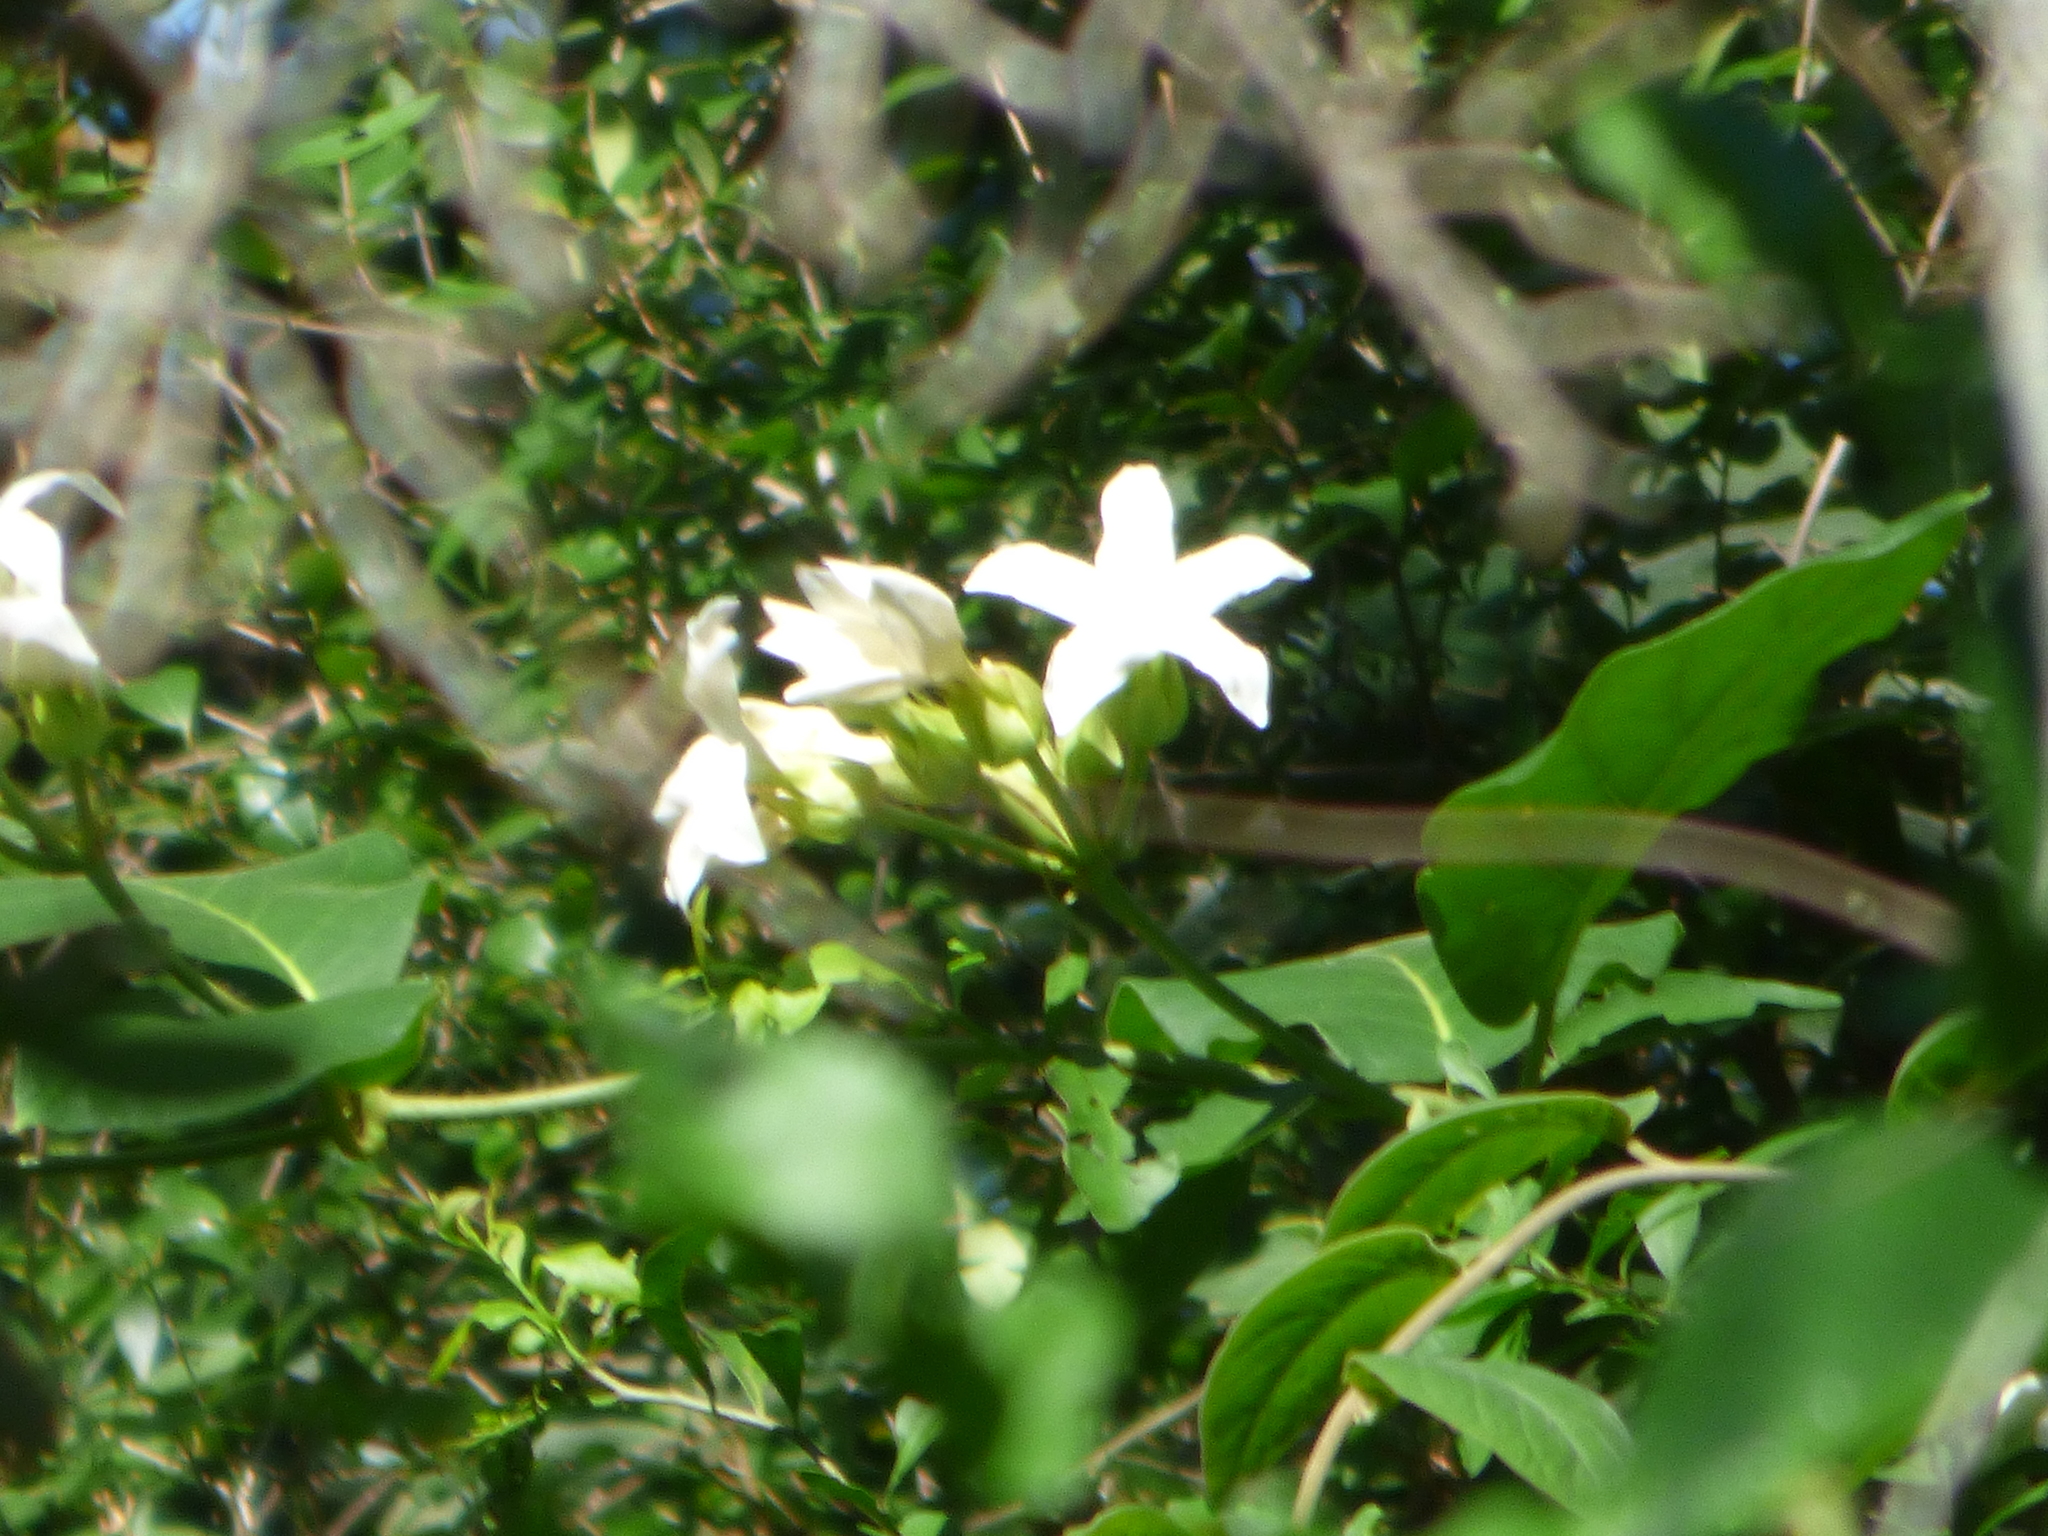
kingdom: Plantae
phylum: Tracheophyta
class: Magnoliopsida
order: Gentianales
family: Apocynaceae
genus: Macroscepis
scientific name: Macroscepis grandiflora
